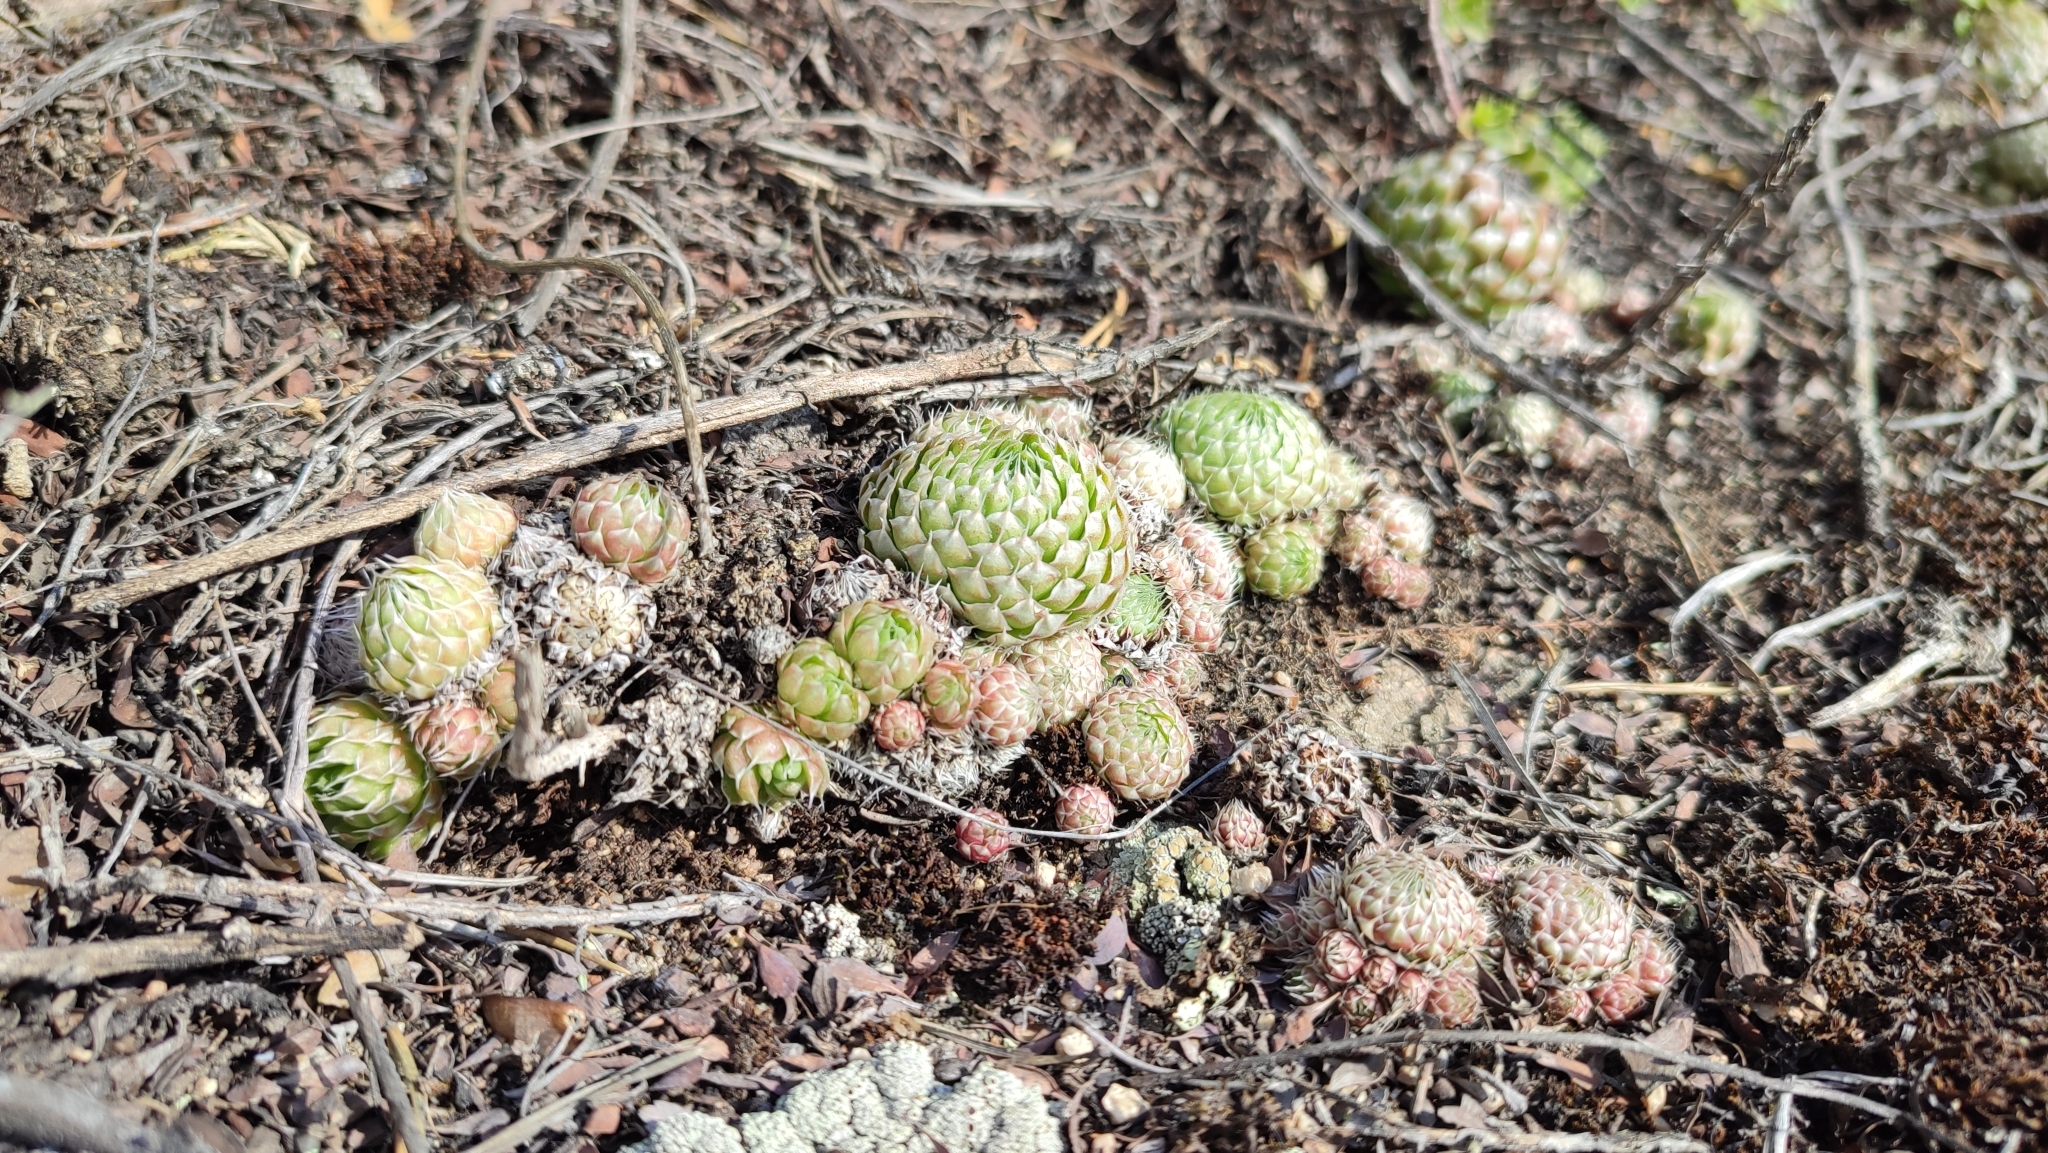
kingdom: Plantae
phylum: Tracheophyta
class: Magnoliopsida
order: Saxifragales
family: Crassulaceae
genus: Orostachys
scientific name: Orostachys spinosa
